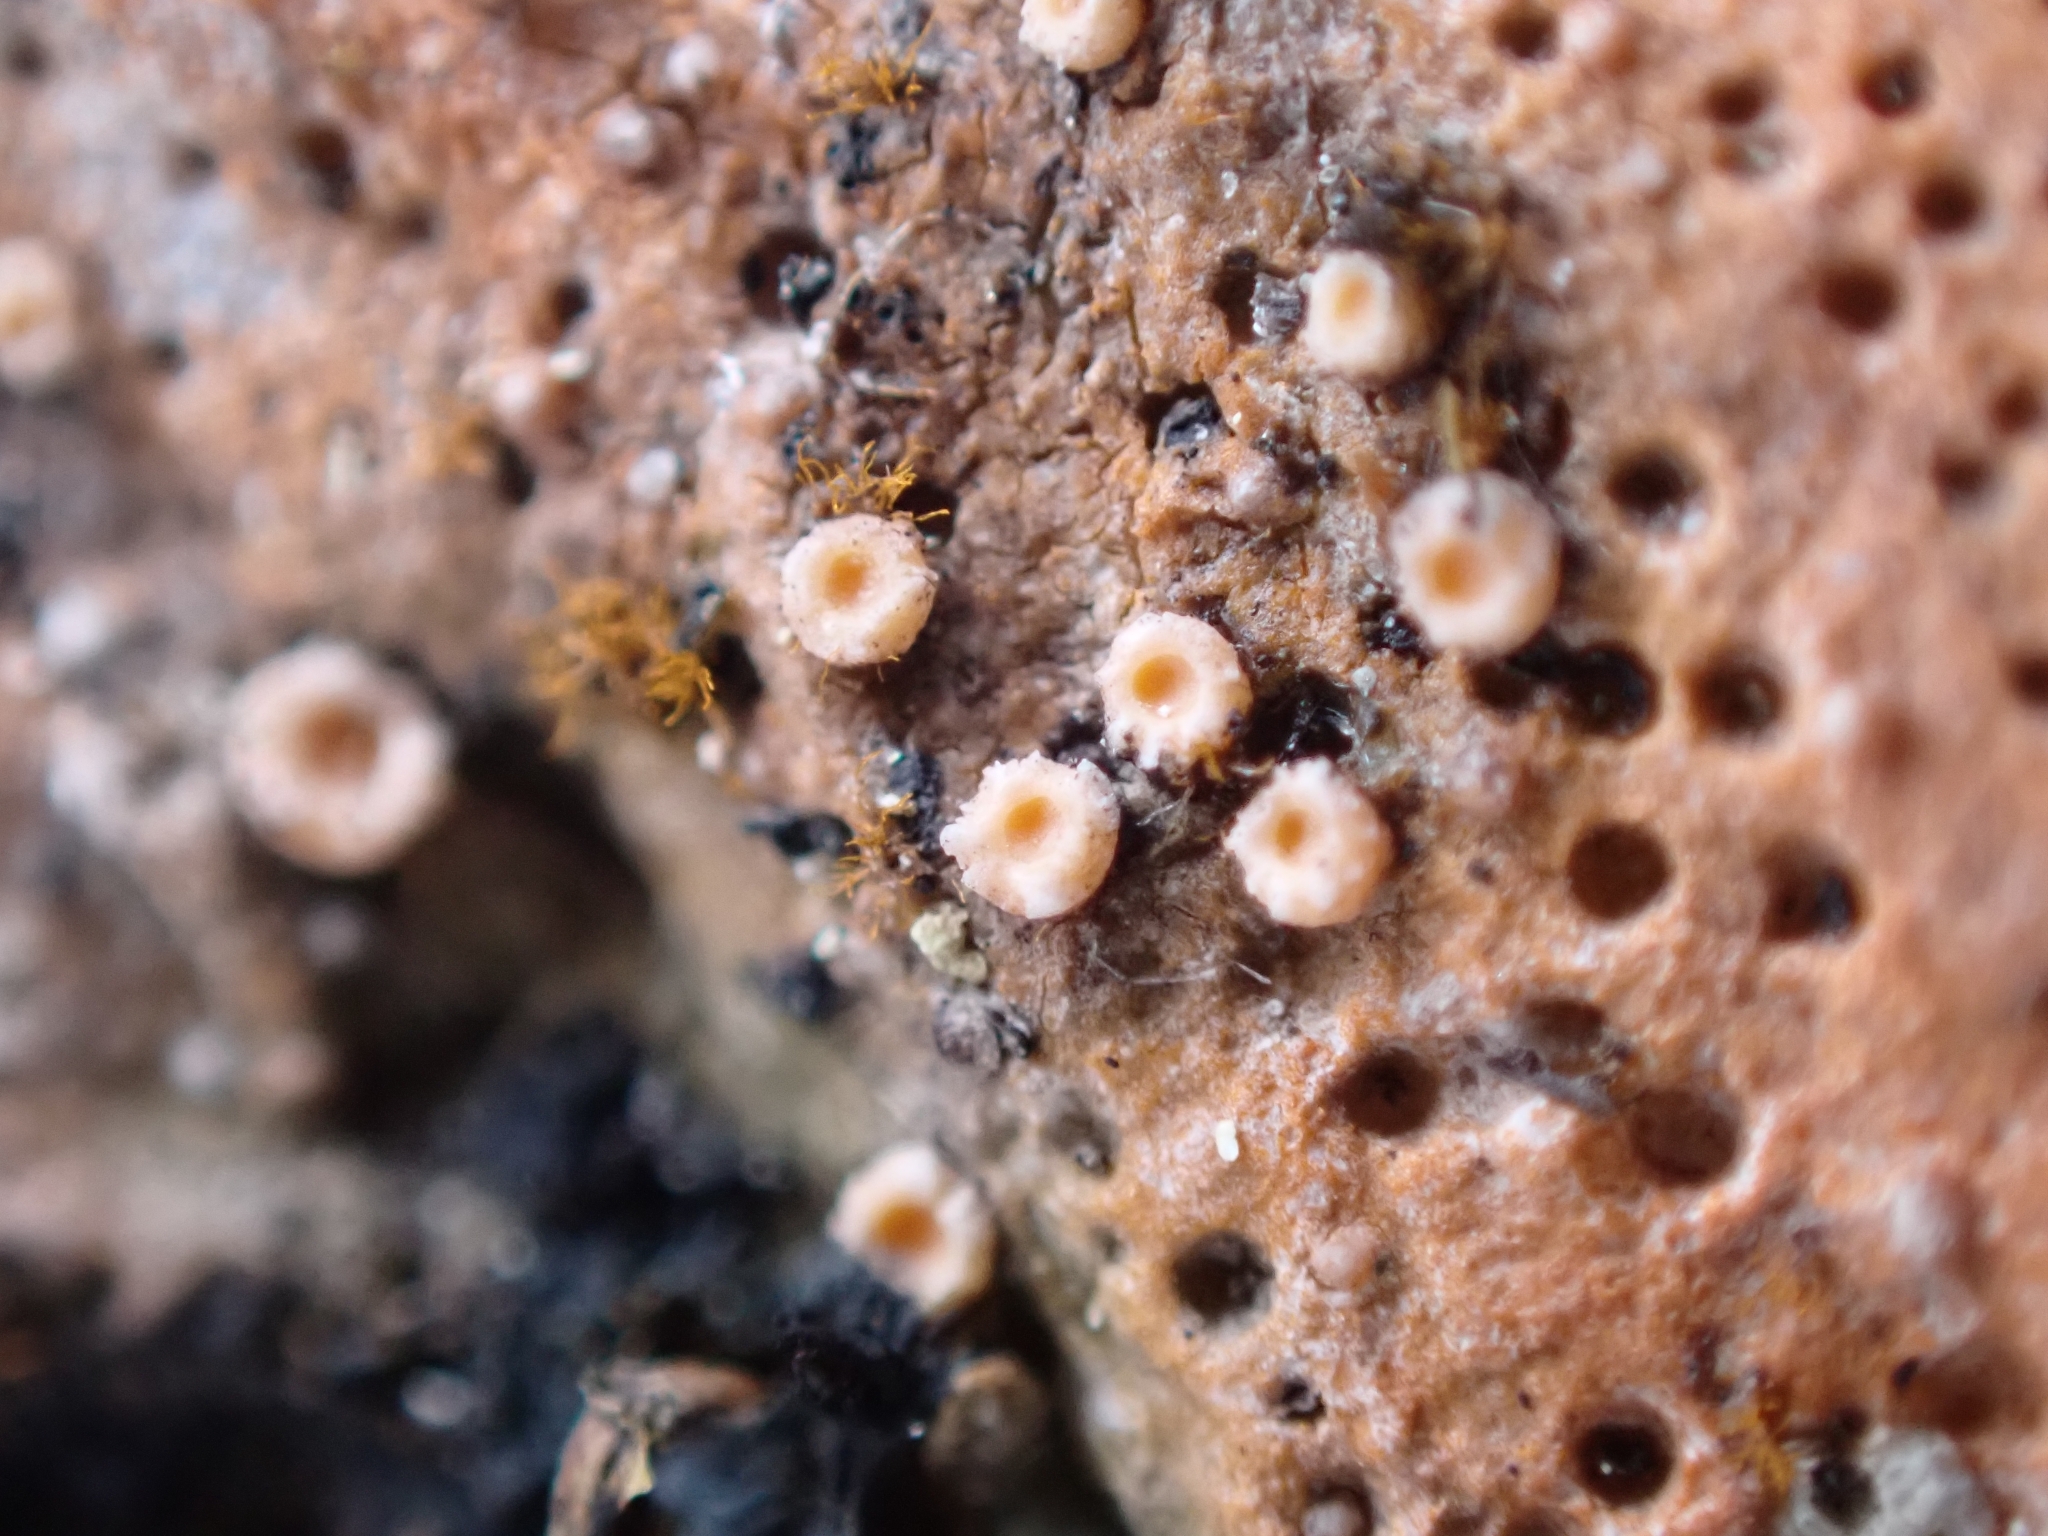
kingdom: Fungi
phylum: Ascomycota
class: Lecanoromycetes
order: Gyalectales
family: Gyalectaceae
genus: Gyalecta
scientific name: Gyalecta jenensis
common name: Rock dimple lichen
